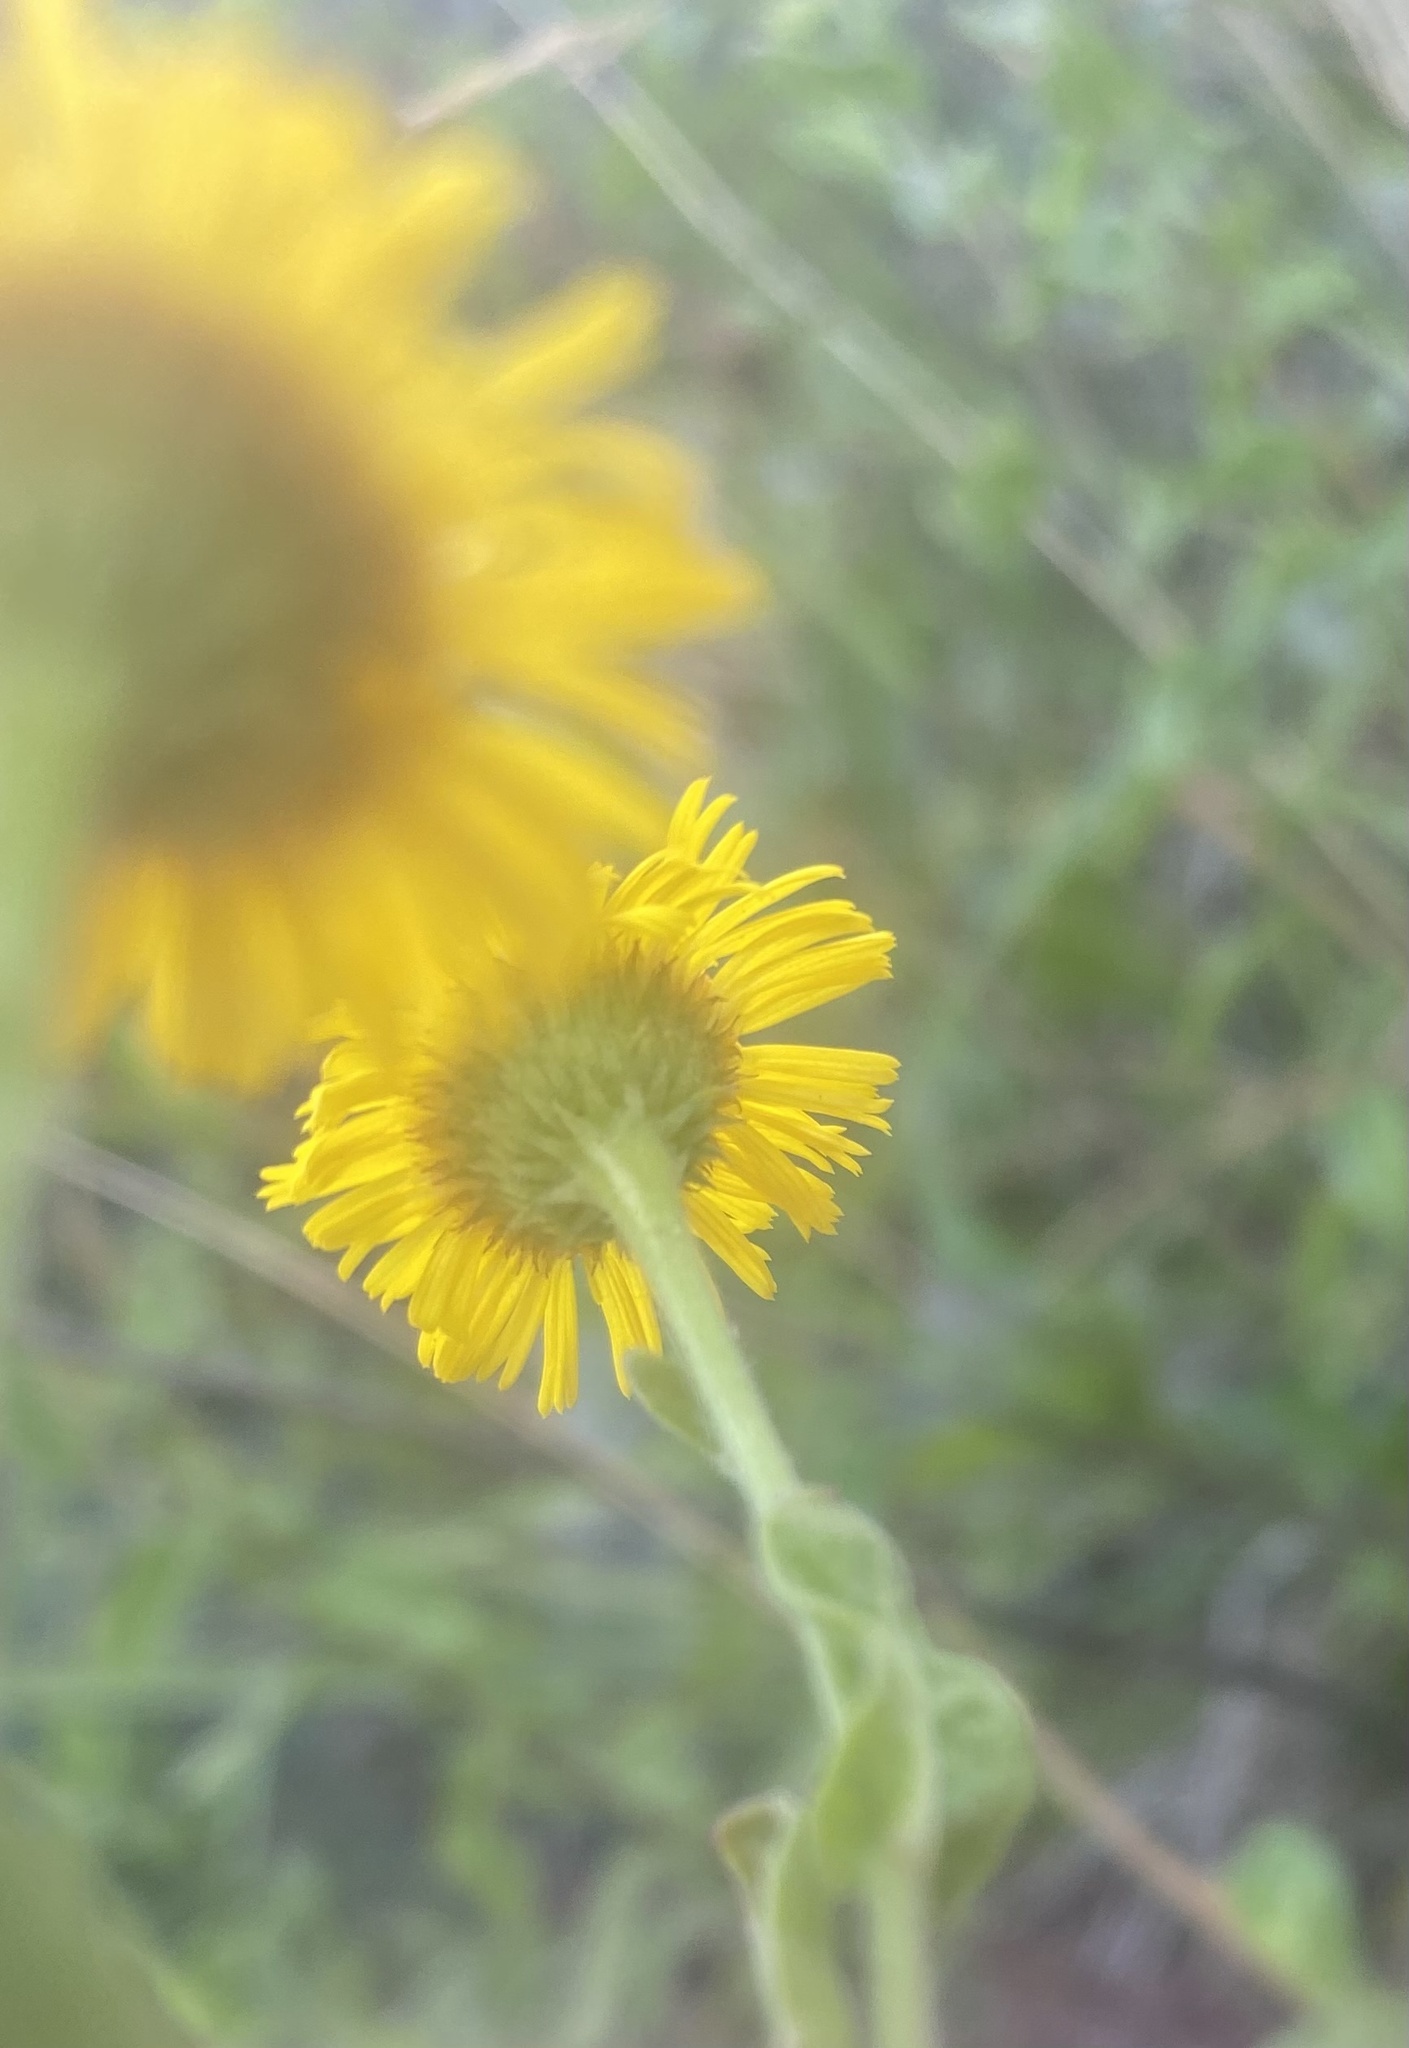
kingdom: Plantae
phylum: Tracheophyta
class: Magnoliopsida
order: Asterales
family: Asteraceae
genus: Pulicaria
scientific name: Pulicaria dysenterica
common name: Common fleabane
